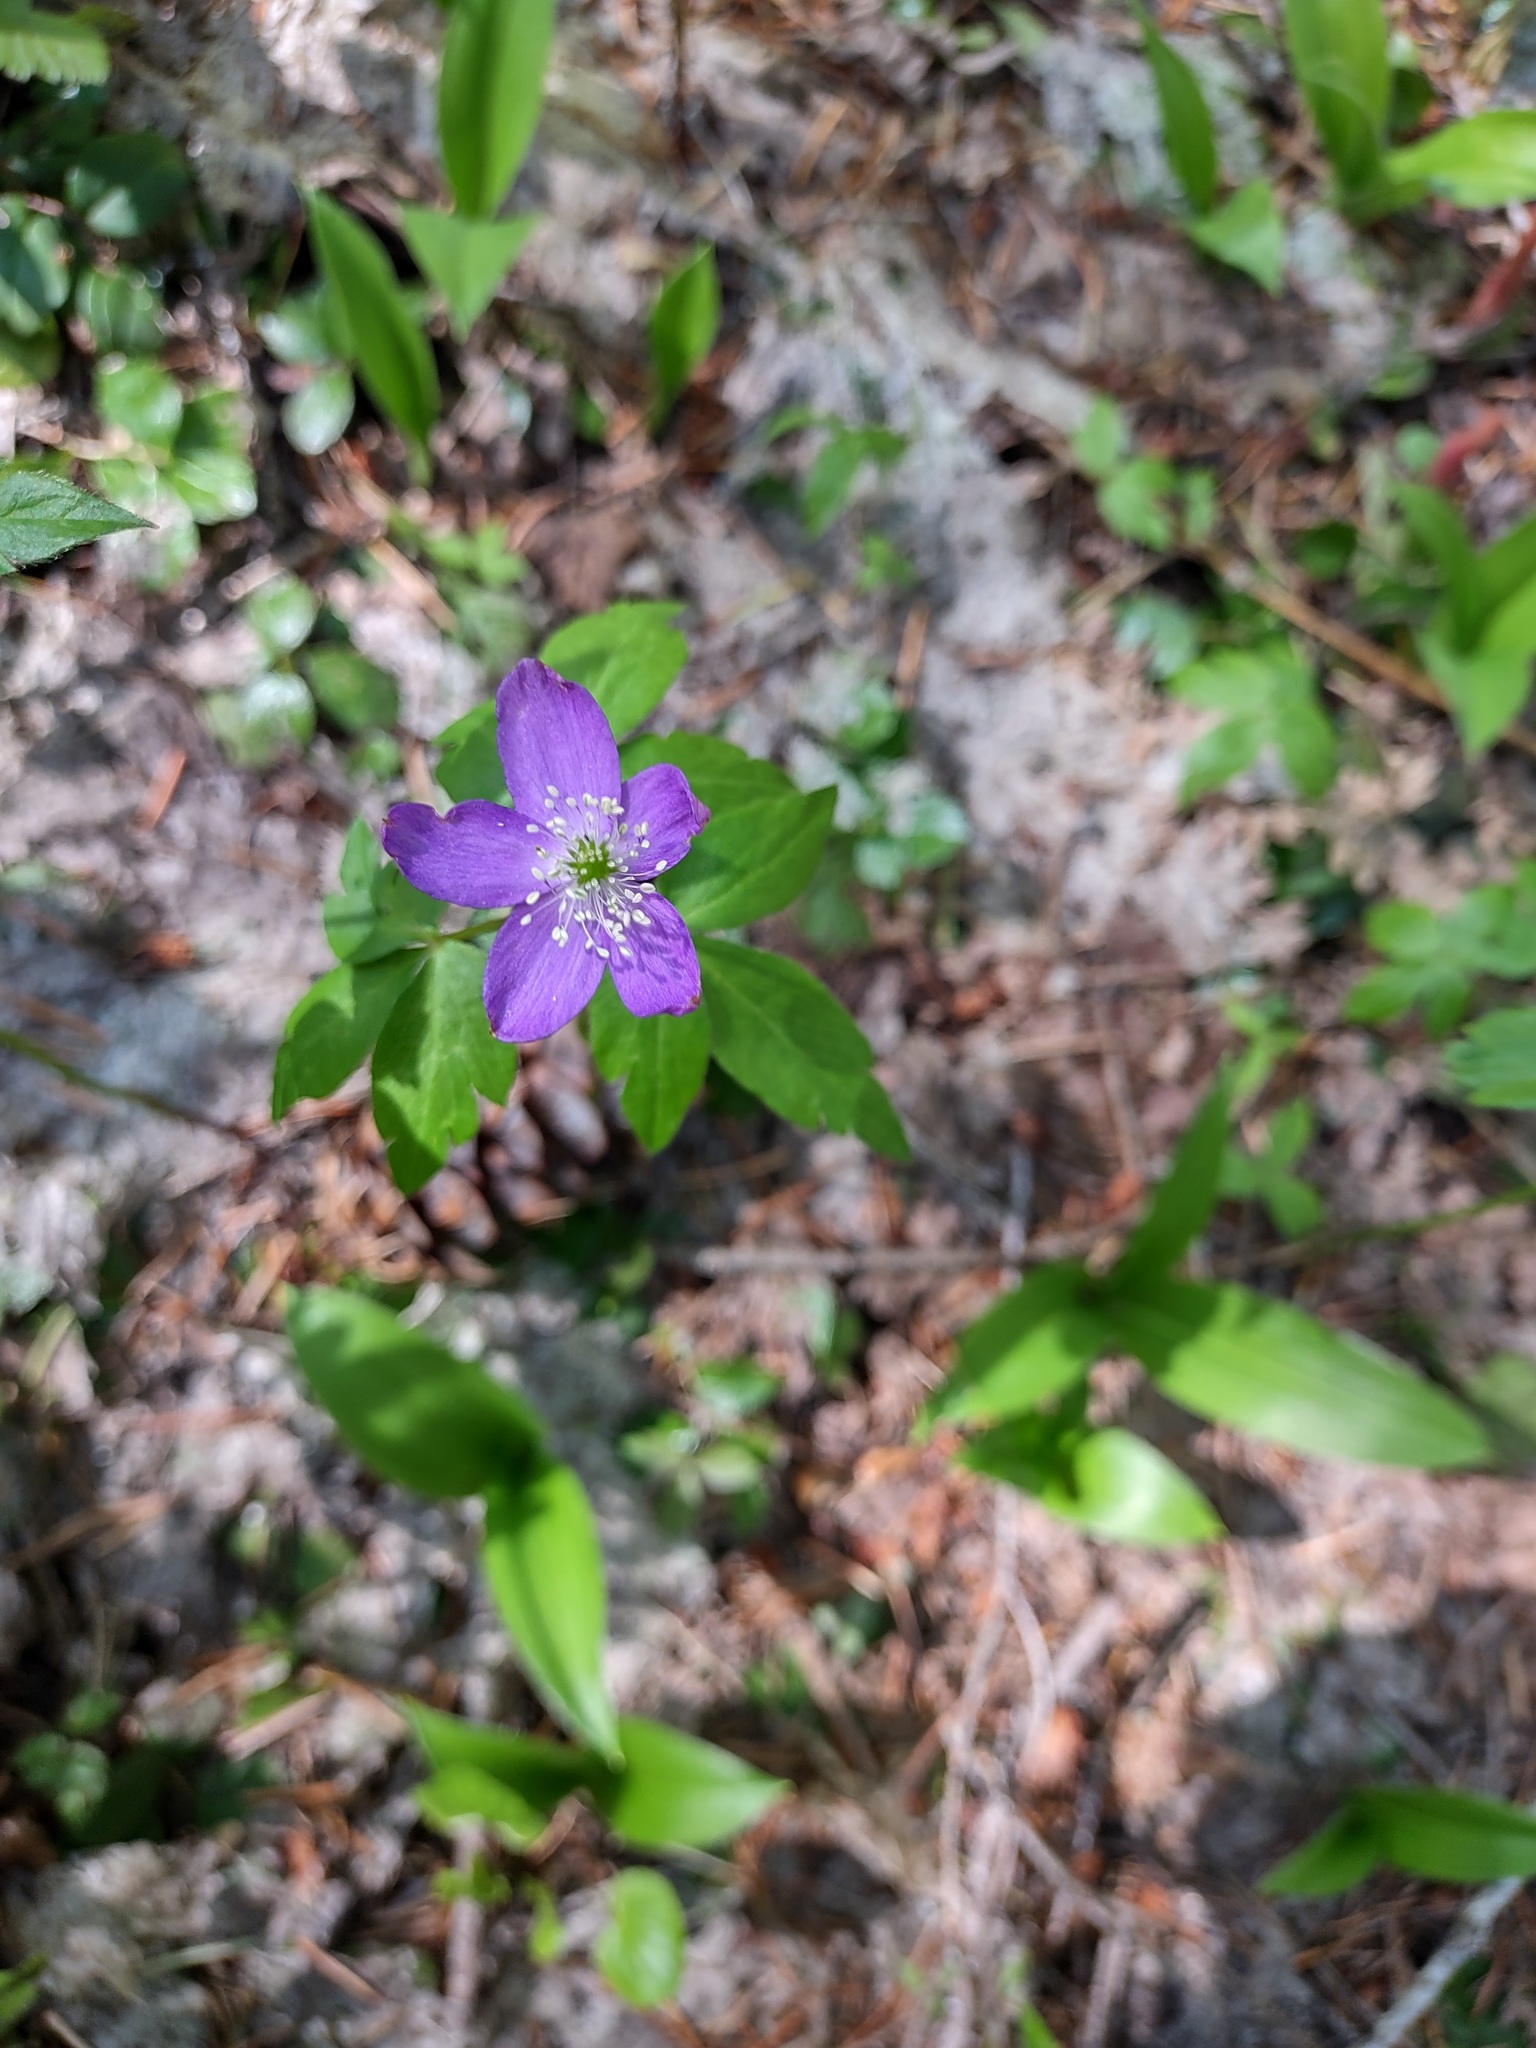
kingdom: Plantae
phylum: Tracheophyta
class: Magnoliopsida
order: Ranunculales
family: Ranunculaceae
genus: Anemone
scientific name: Anemone oregana
